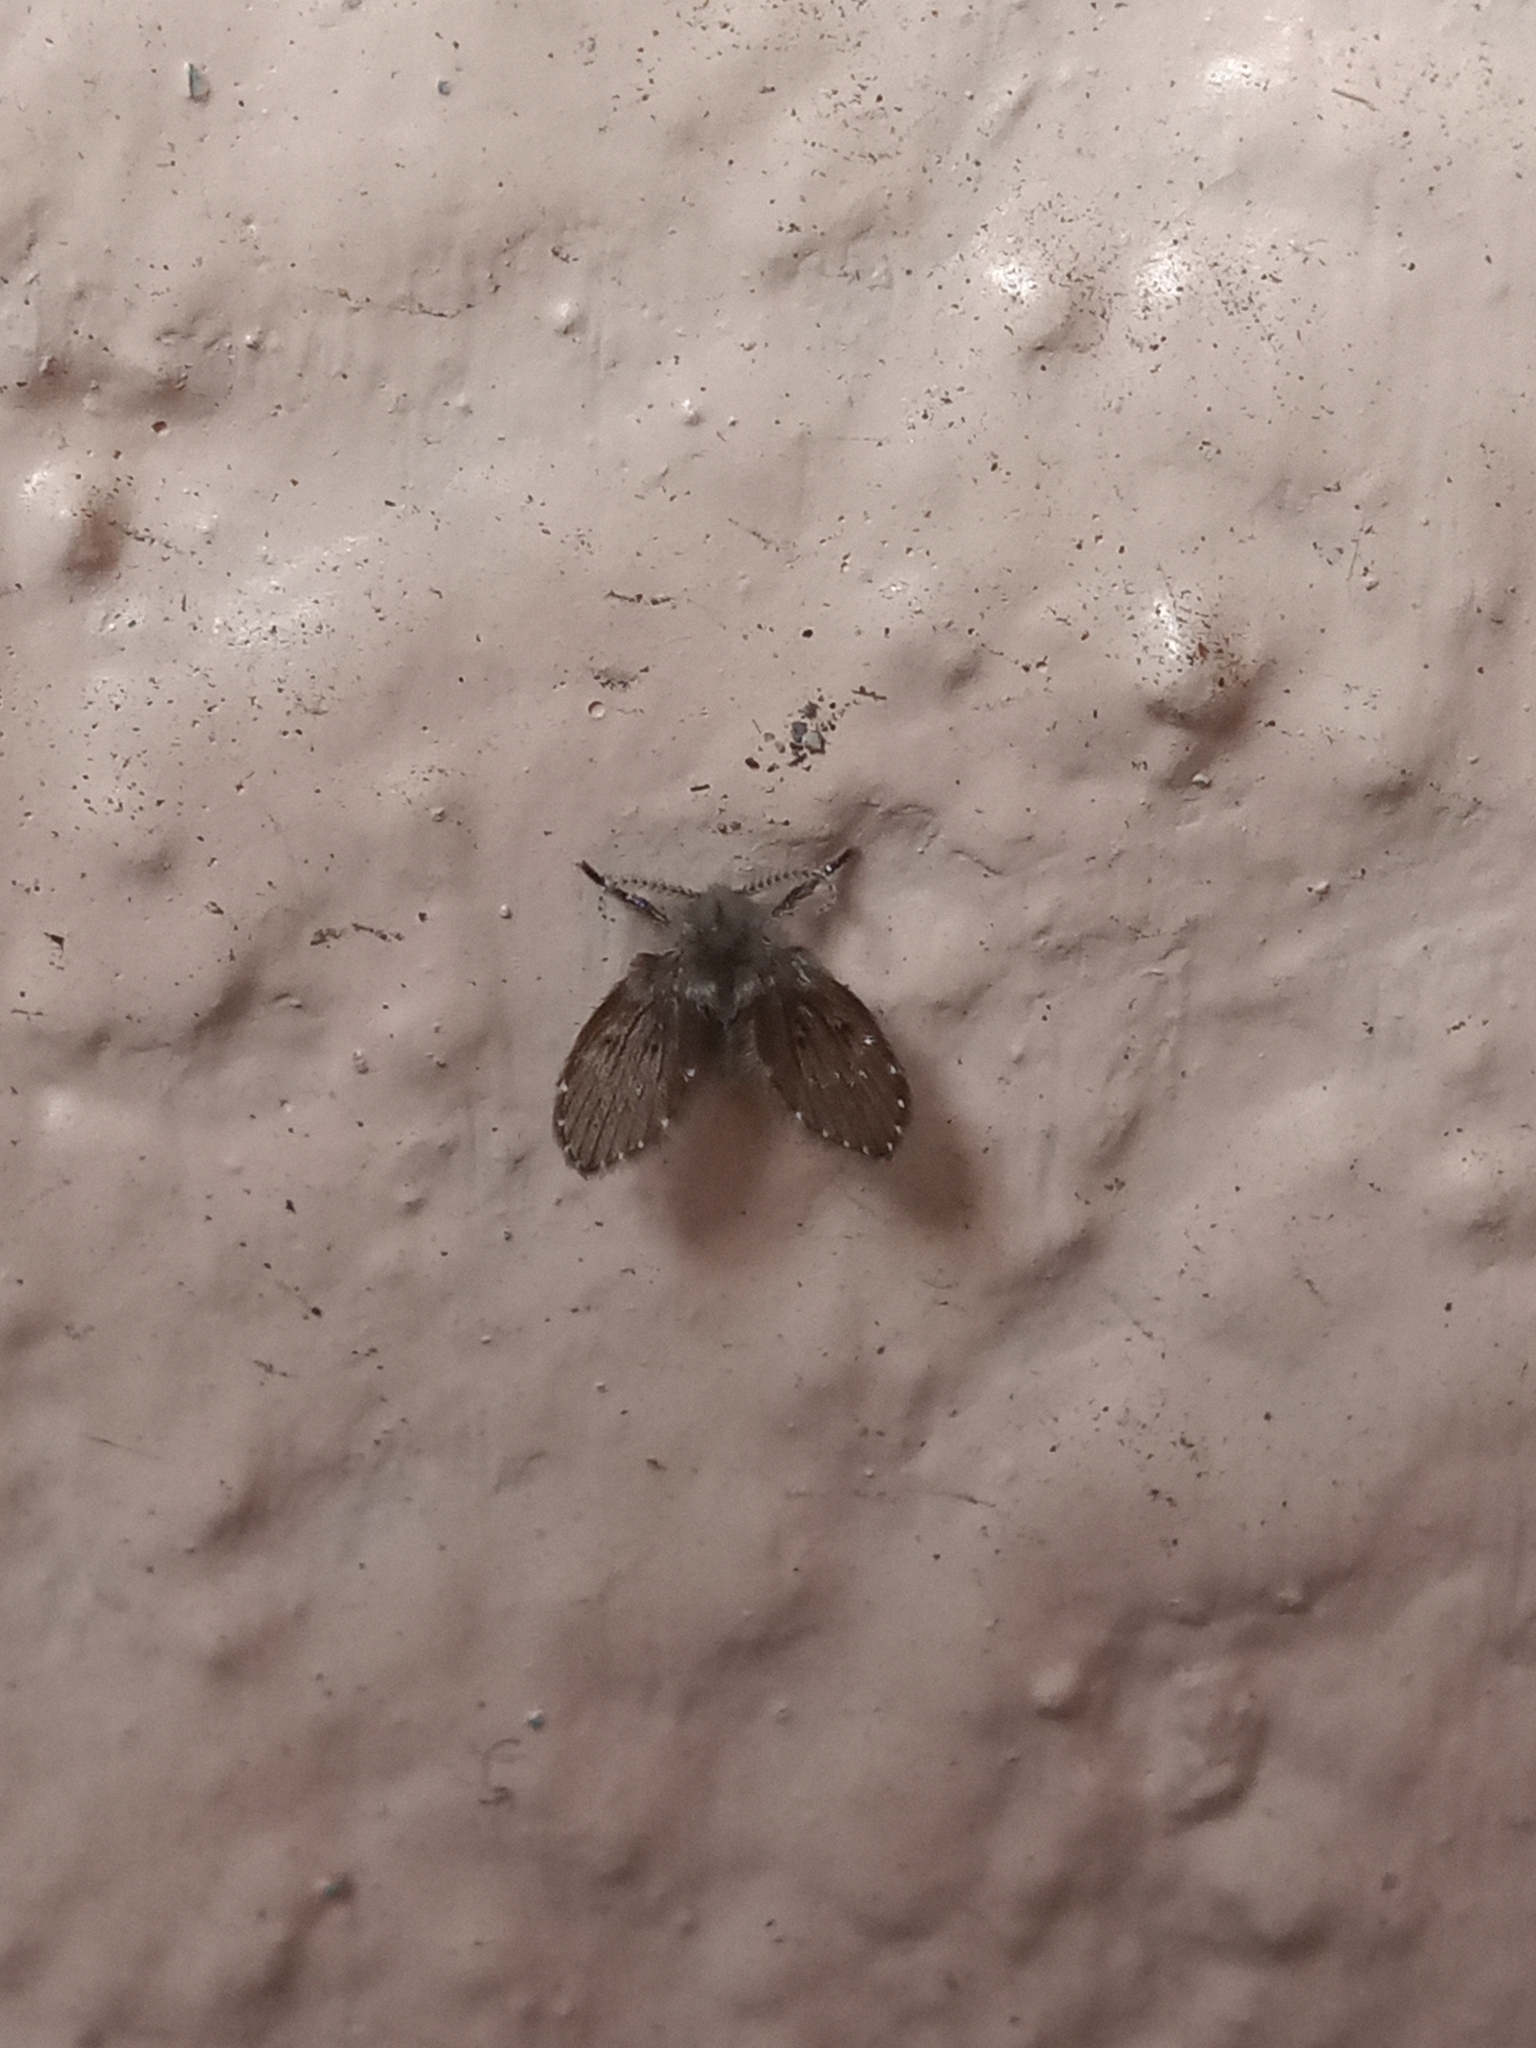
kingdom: Animalia
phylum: Arthropoda
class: Insecta
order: Diptera
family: Psychodidae
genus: Clogmia
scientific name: Clogmia albipunctatus
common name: White-spotted moth fly
